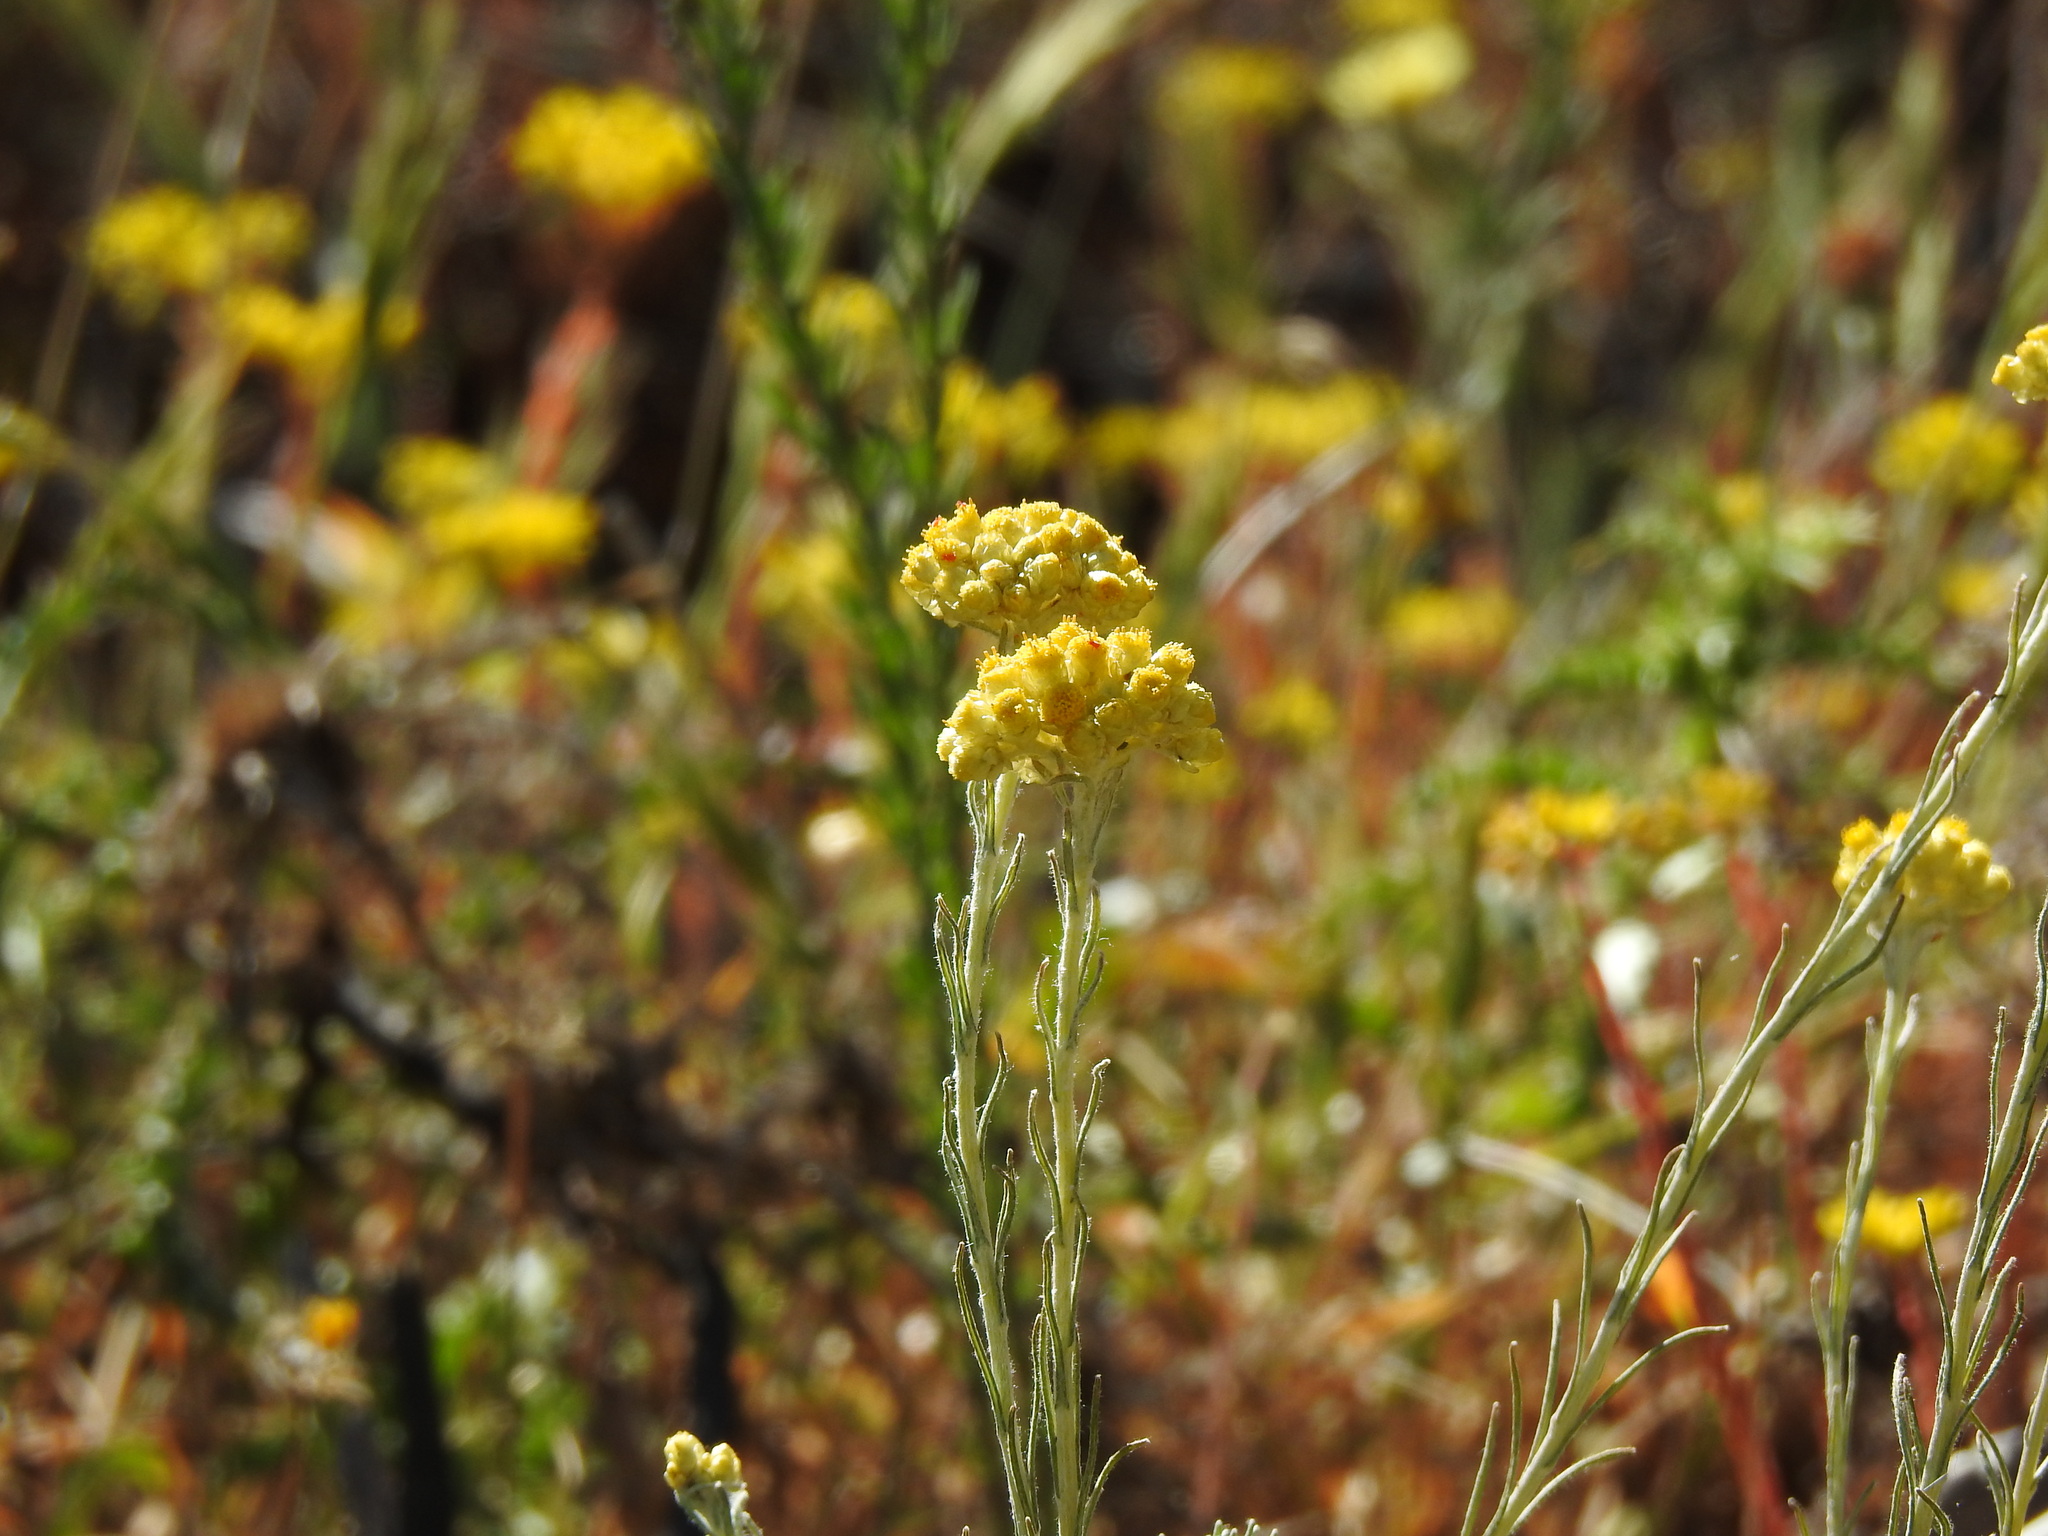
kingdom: Plantae
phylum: Tracheophyta
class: Magnoliopsida
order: Asterales
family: Asteraceae
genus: Helichrysum
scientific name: Helichrysum stoechas
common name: Goldilocks
